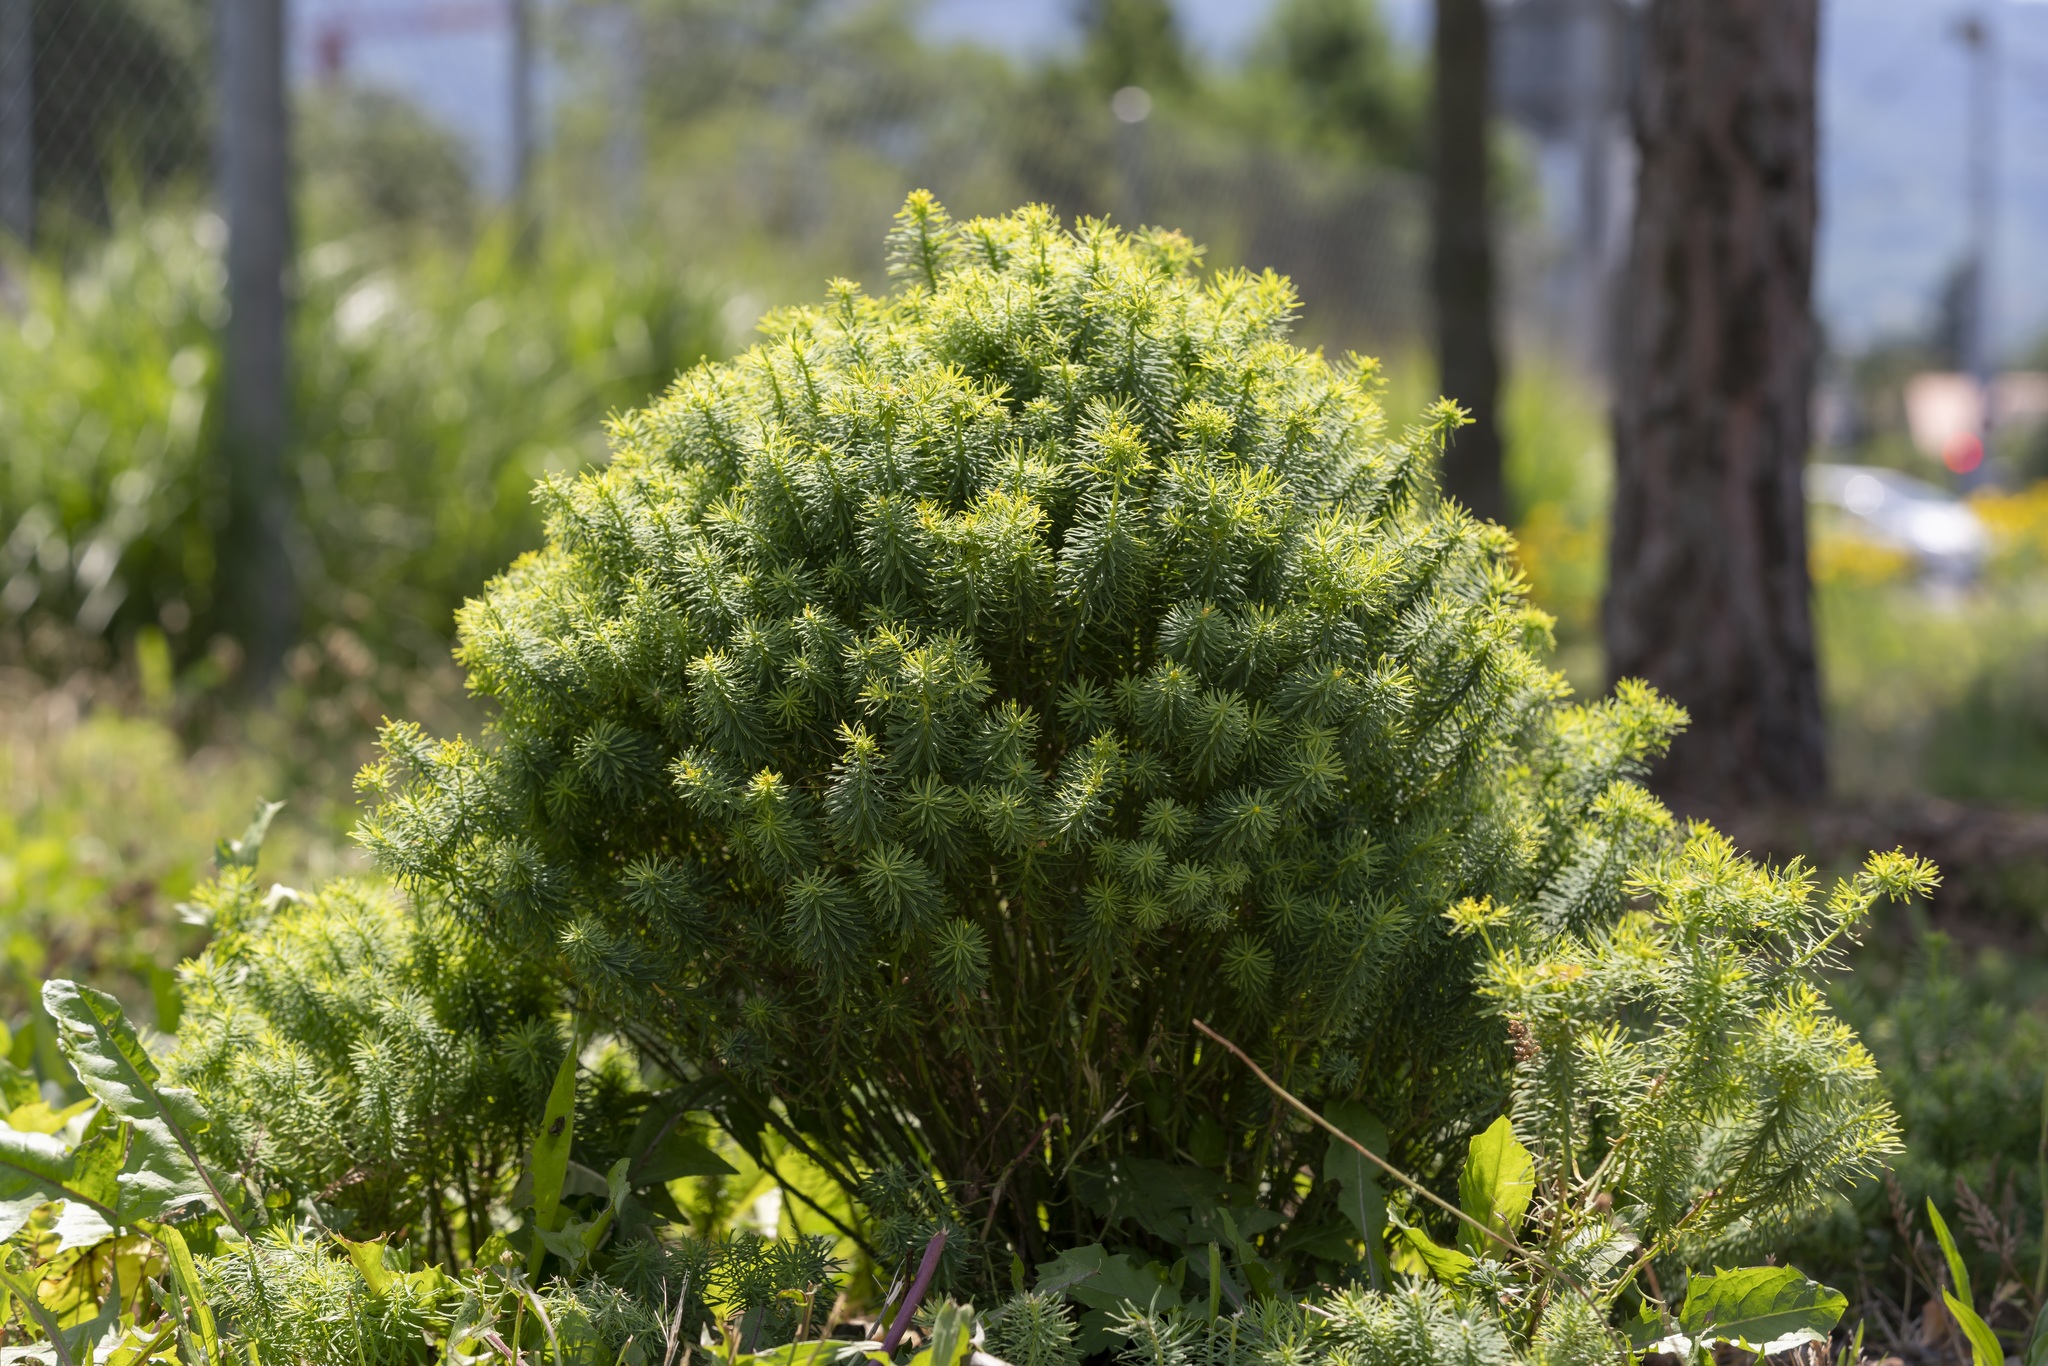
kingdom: Plantae
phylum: Tracheophyta
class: Magnoliopsida
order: Malpighiales
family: Euphorbiaceae
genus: Euphorbia
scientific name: Euphorbia cyparissias
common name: Cypress spurge
